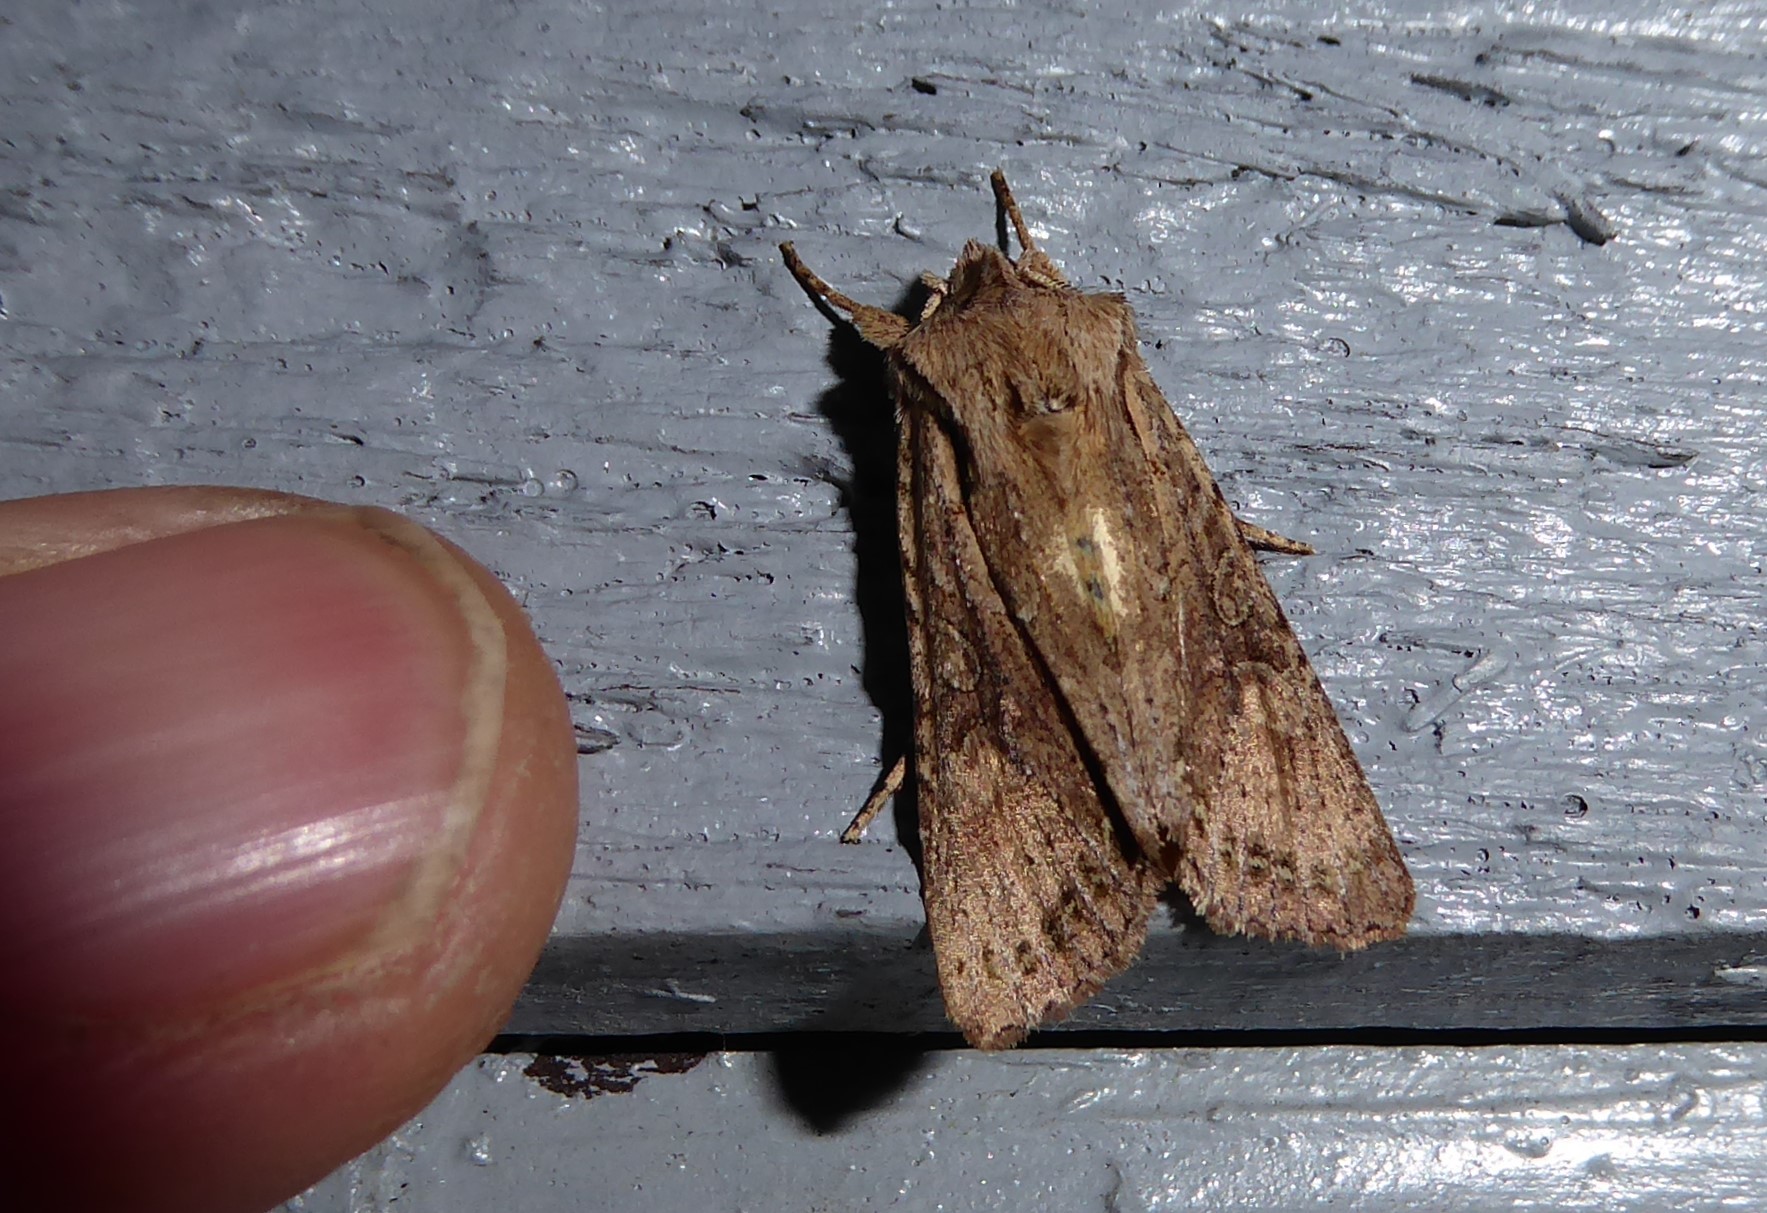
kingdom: Animalia
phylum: Arthropoda
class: Insecta
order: Lepidoptera
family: Noctuidae
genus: Ichneutica
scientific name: Ichneutica
